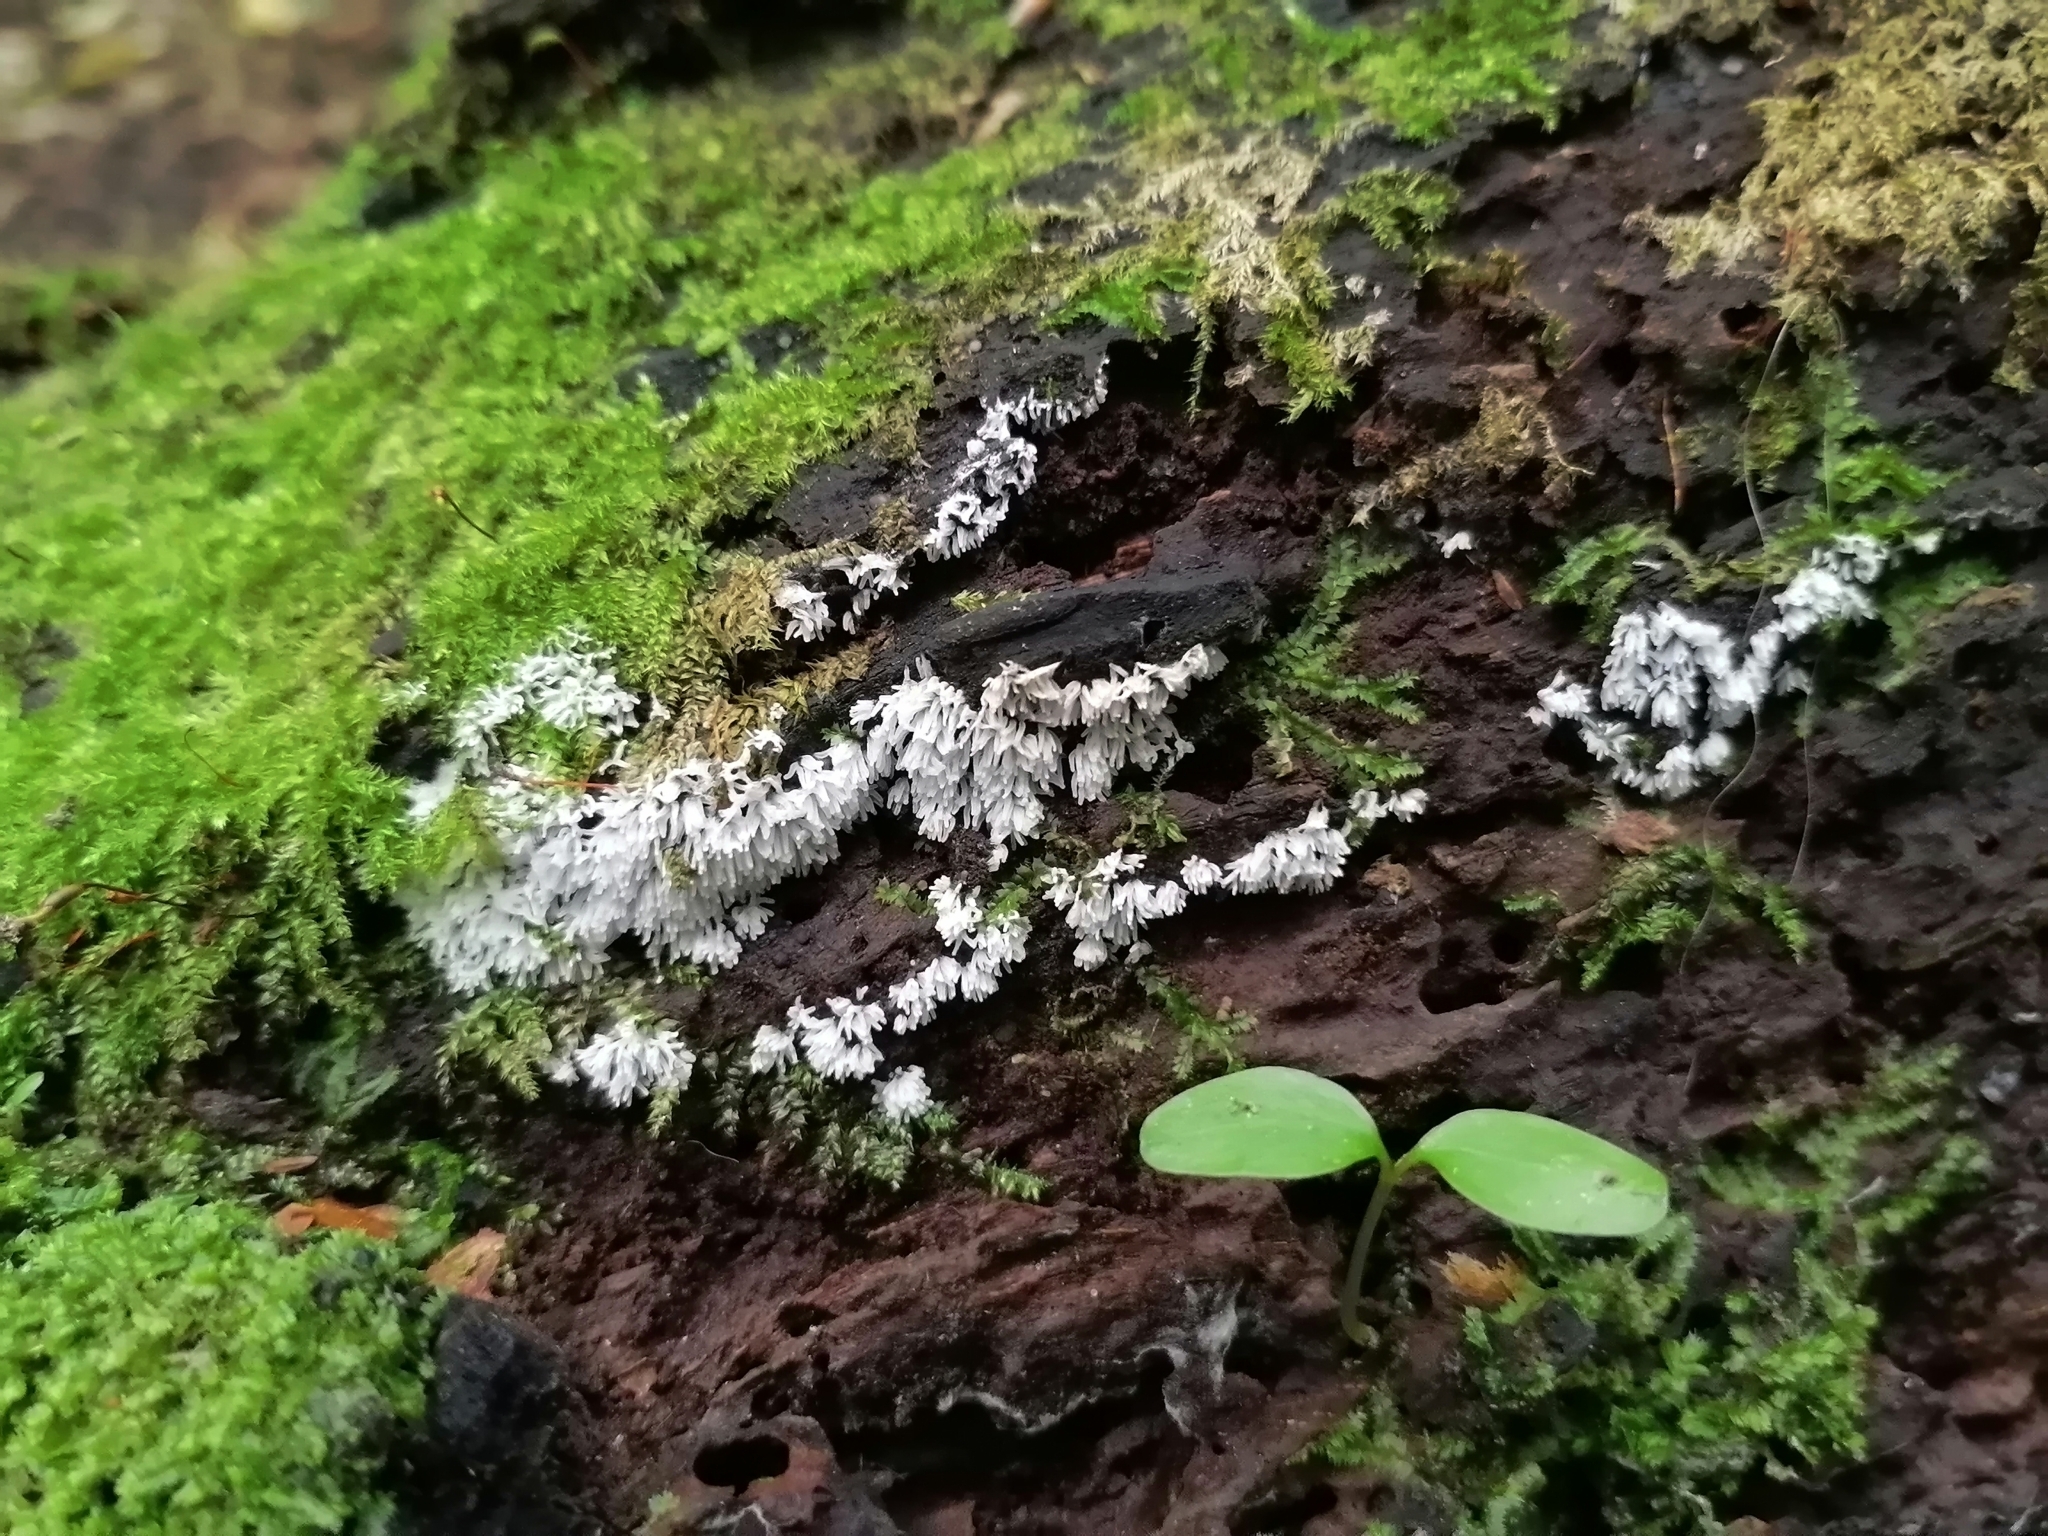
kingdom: Protozoa
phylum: Mycetozoa
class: Protosteliomycetes
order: Ceratiomyxales
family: Ceratiomyxaceae
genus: Ceratiomyxa
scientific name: Ceratiomyxa fruticulosa
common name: Honeycomb coral slime mold
